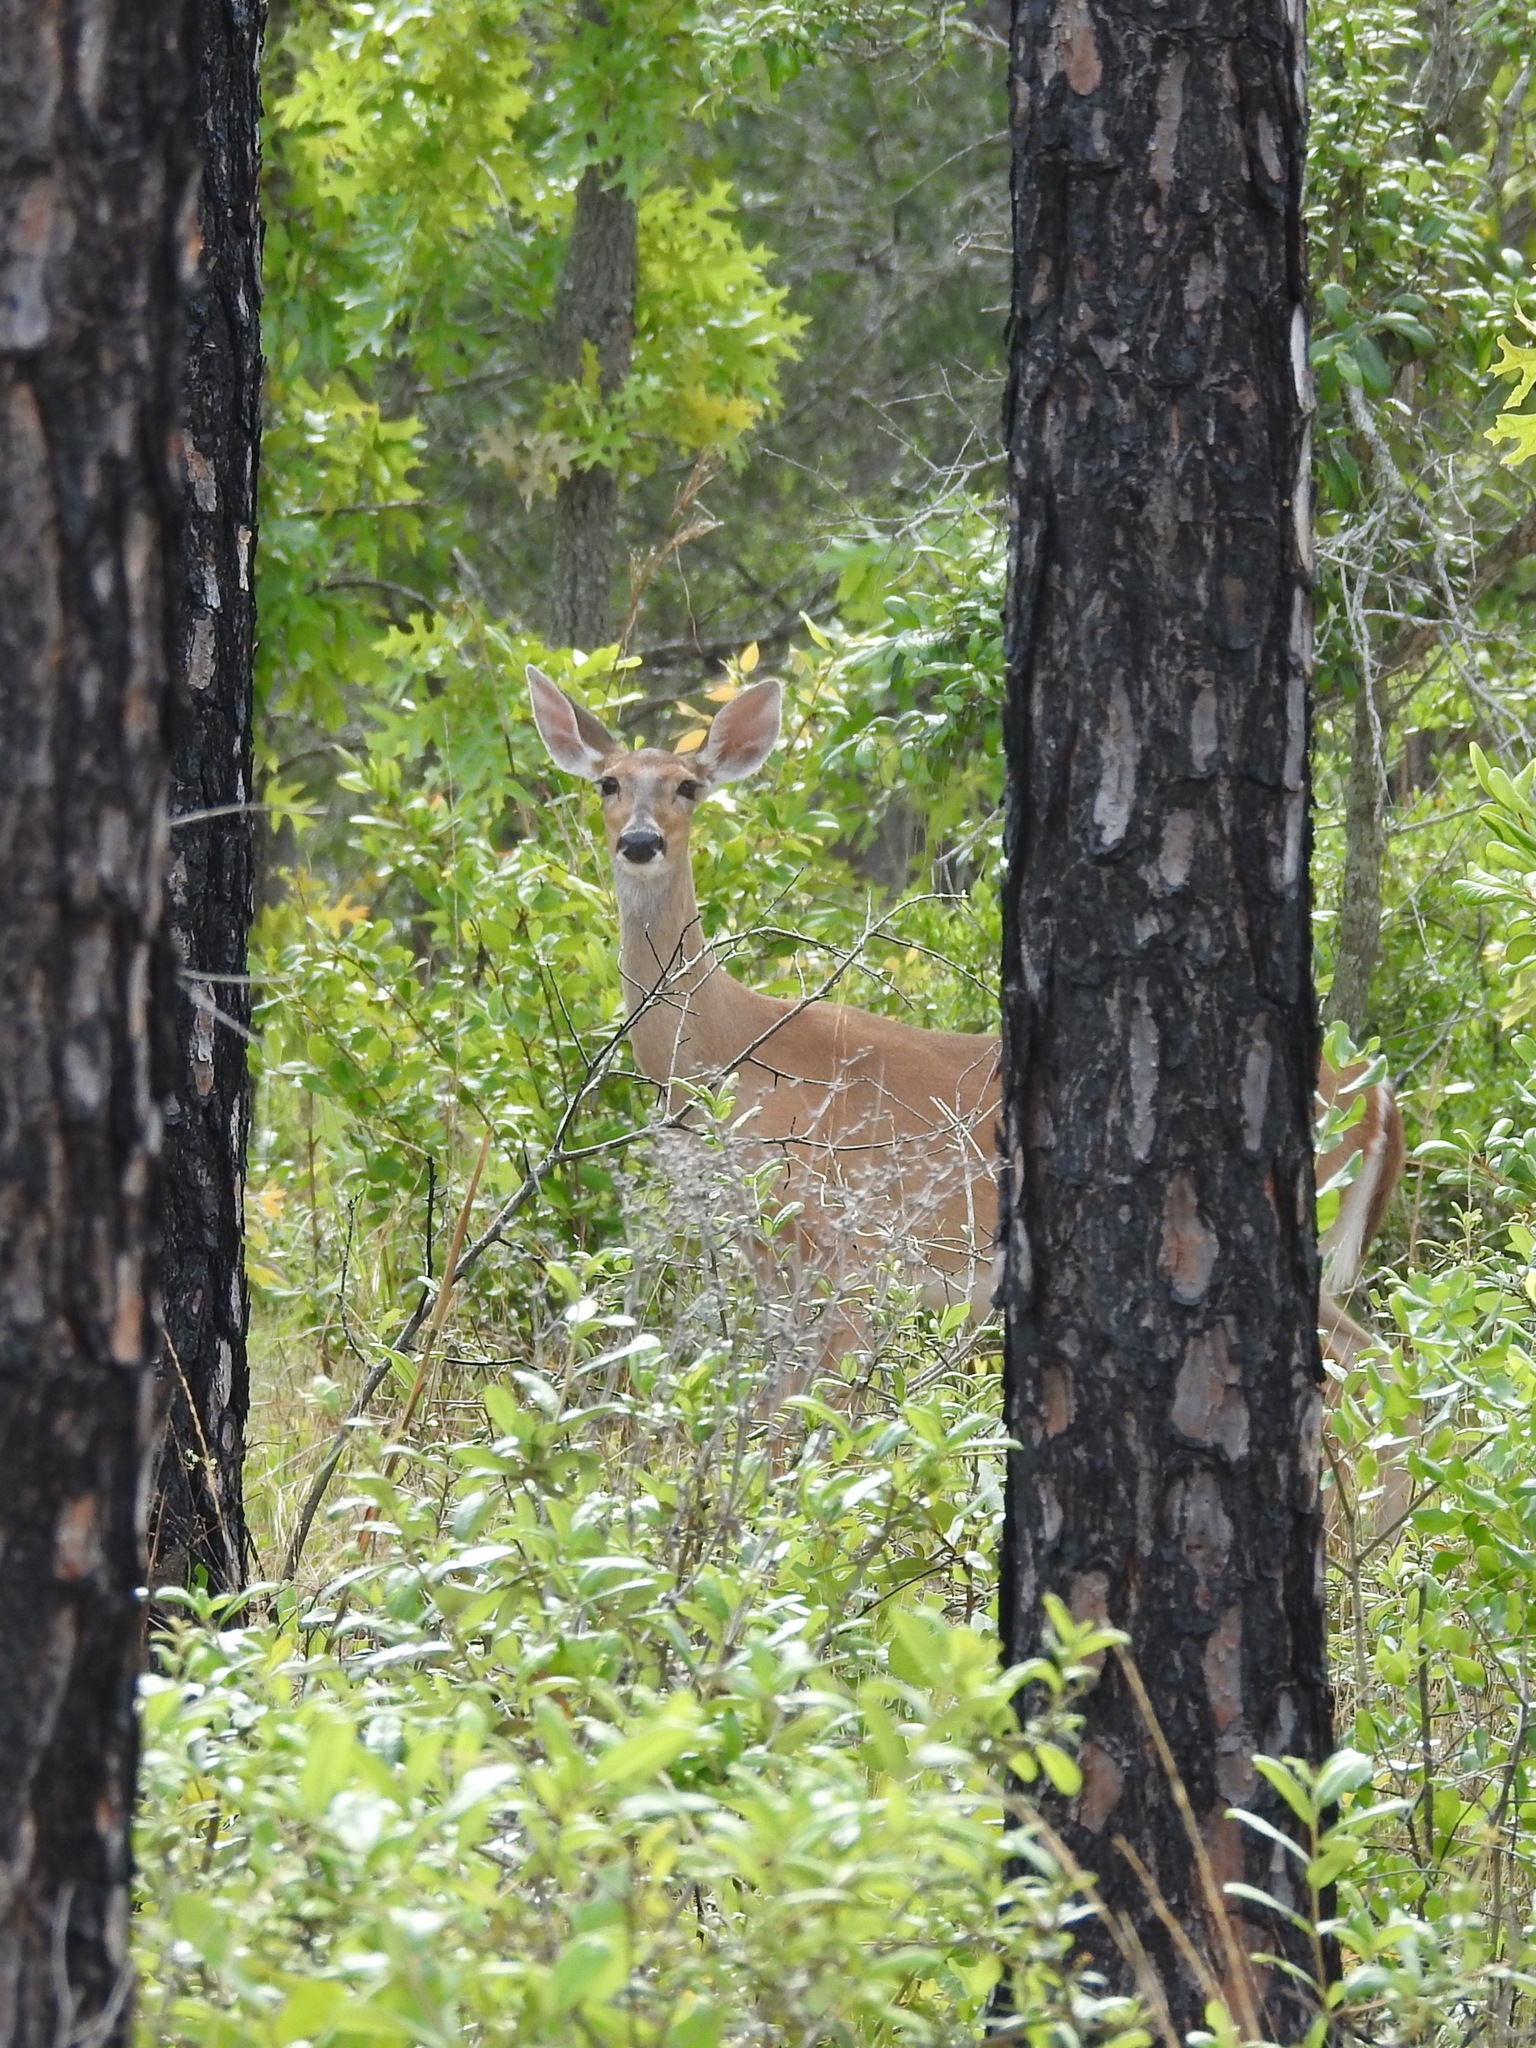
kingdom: Animalia
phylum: Chordata
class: Mammalia
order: Artiodactyla
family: Cervidae
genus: Odocoileus
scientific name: Odocoileus virginianus
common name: White-tailed deer
